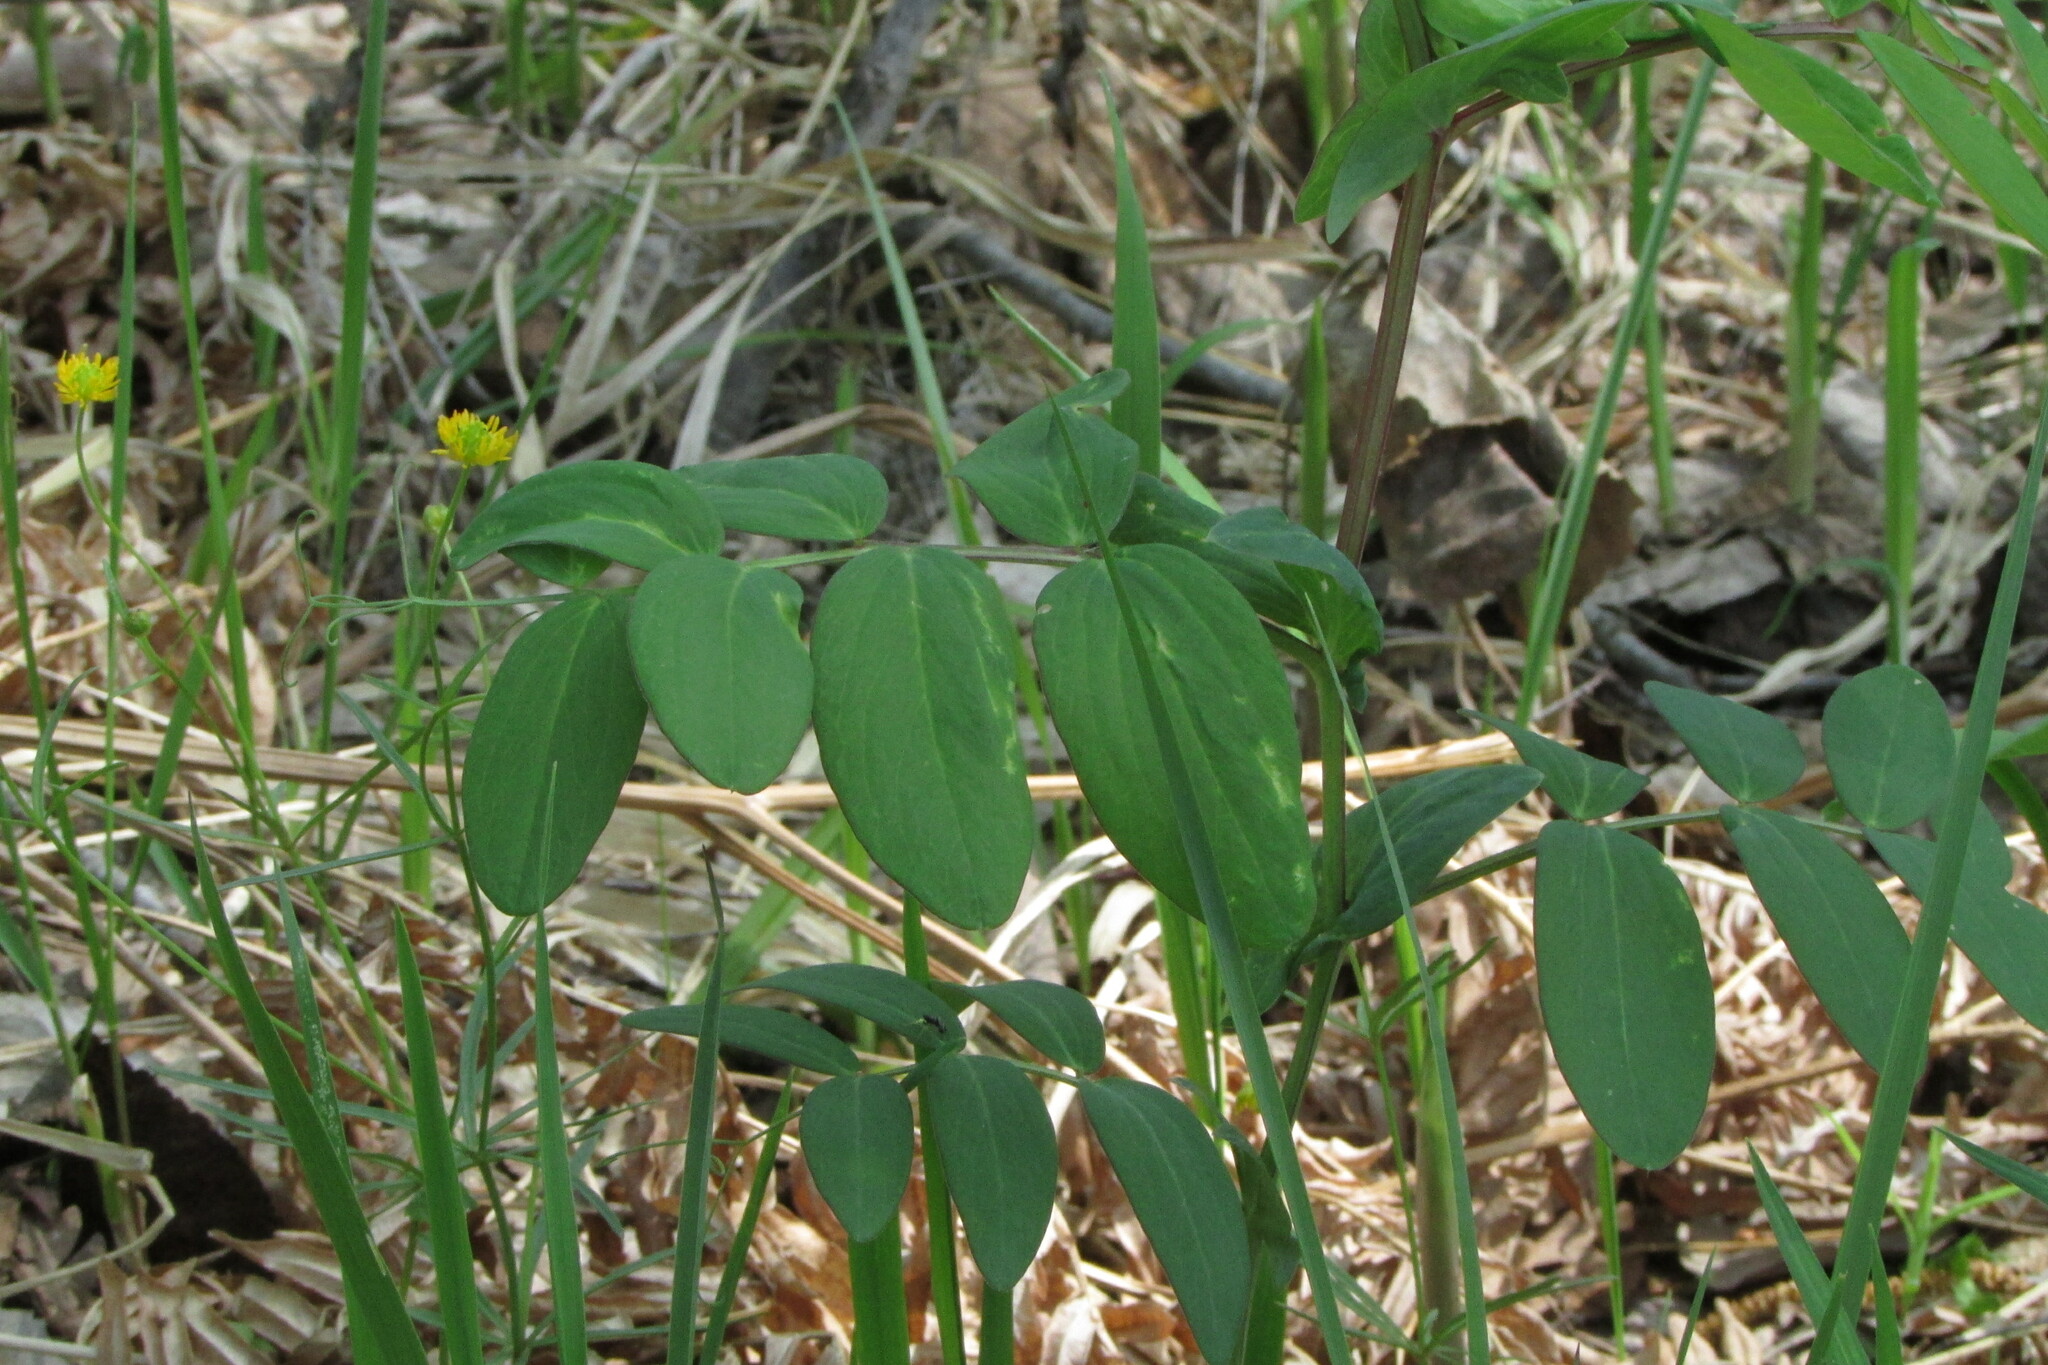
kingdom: Plantae
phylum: Tracheophyta
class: Magnoliopsida
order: Fabales
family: Fabaceae
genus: Lathyrus
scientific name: Lathyrus pisiformis
